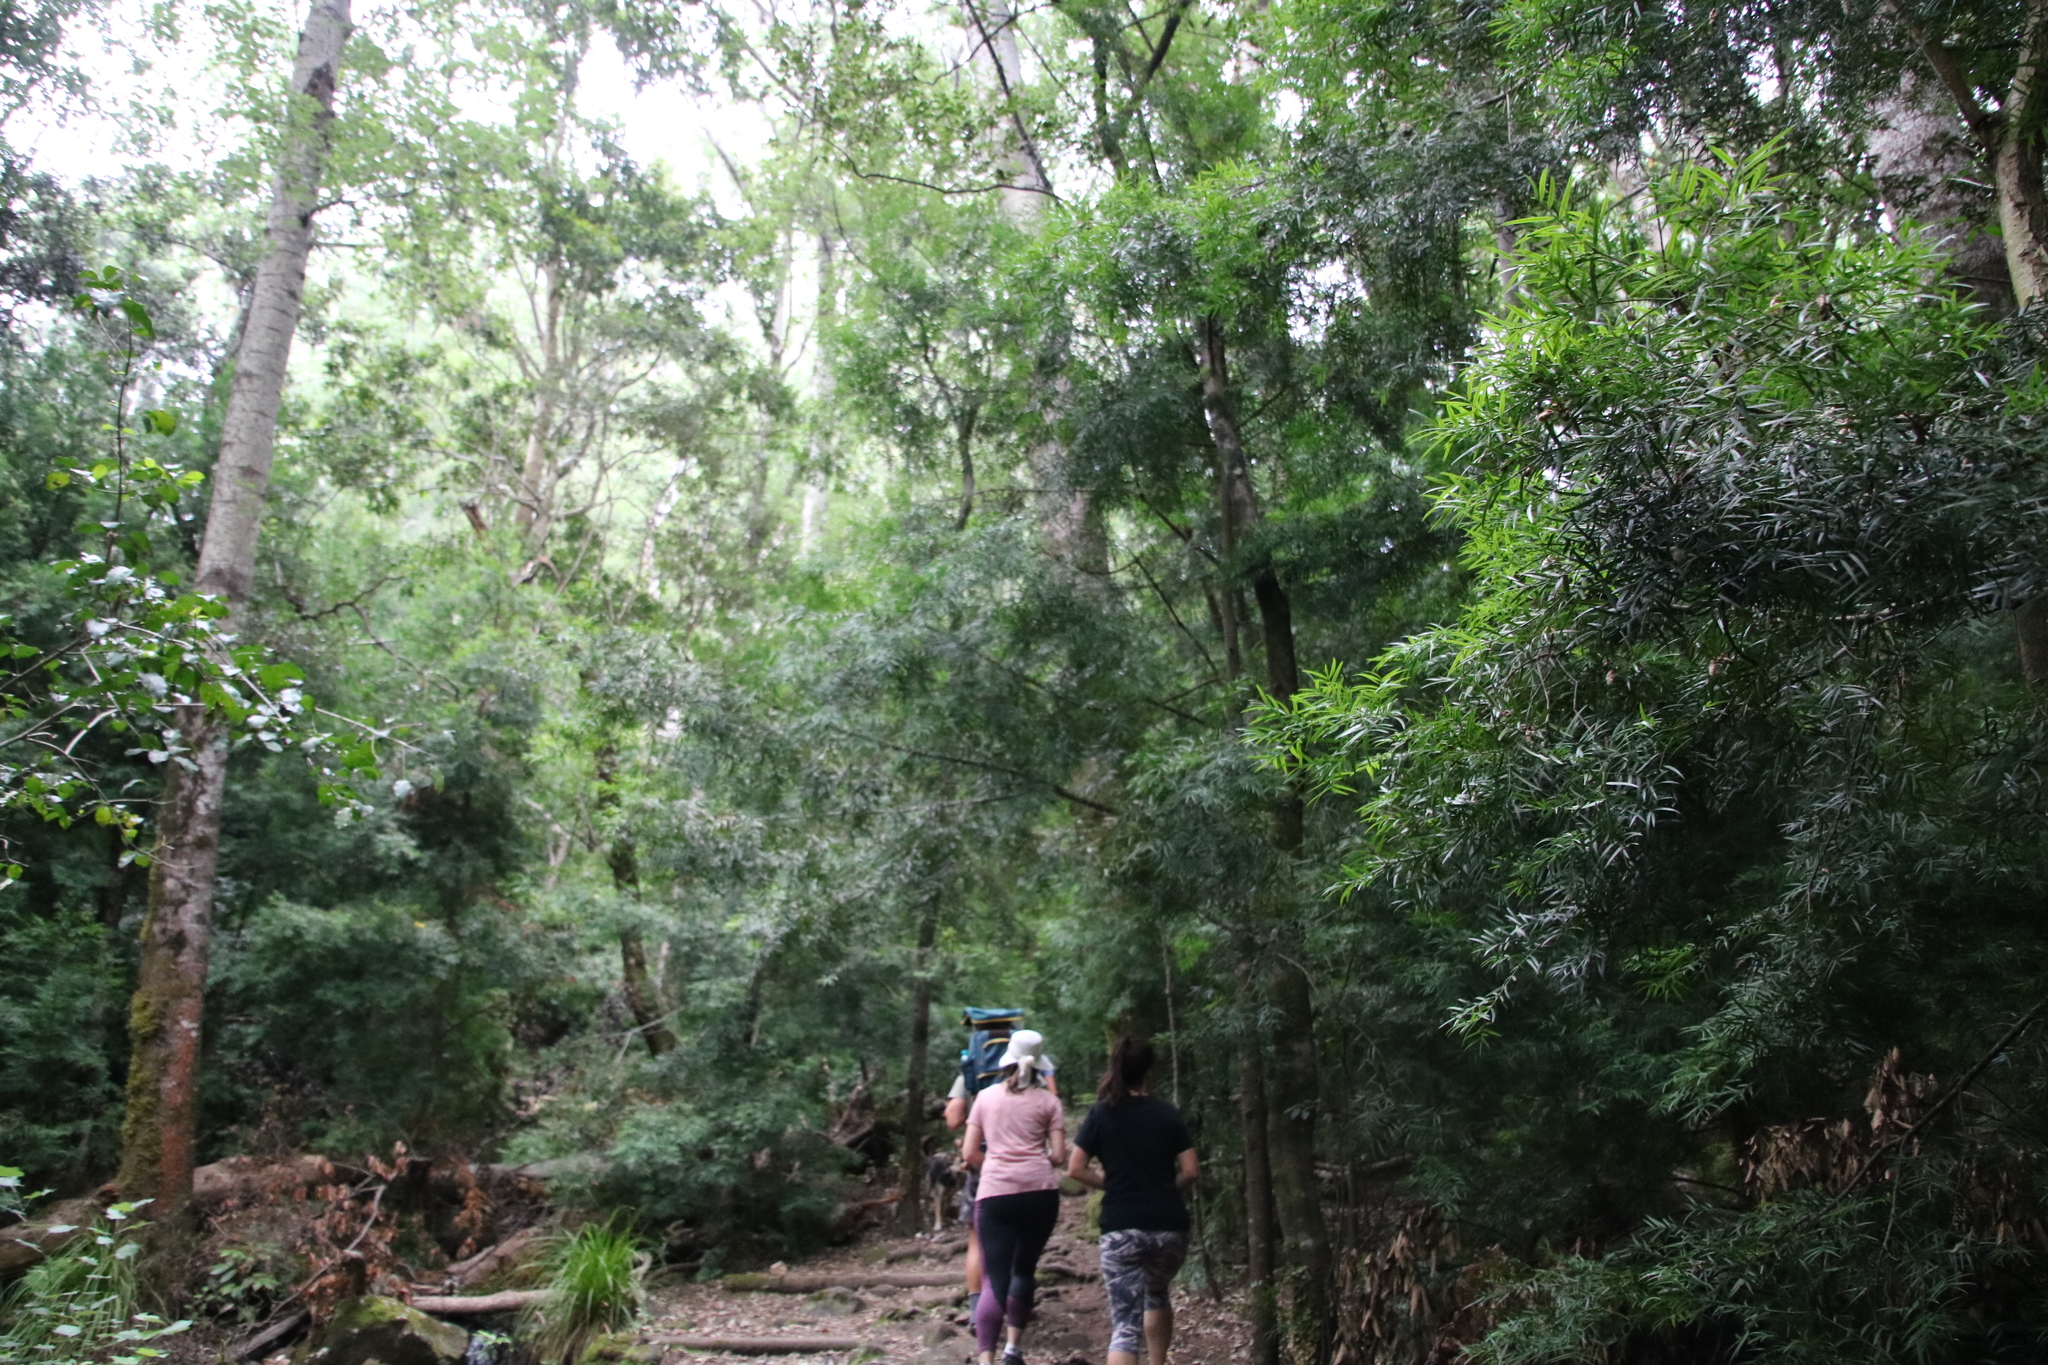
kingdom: Plantae
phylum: Tracheophyta
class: Pinopsida
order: Pinales
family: Podocarpaceae
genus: Afrocarpus
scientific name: Afrocarpus falcatus
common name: Bastard yellowwood
